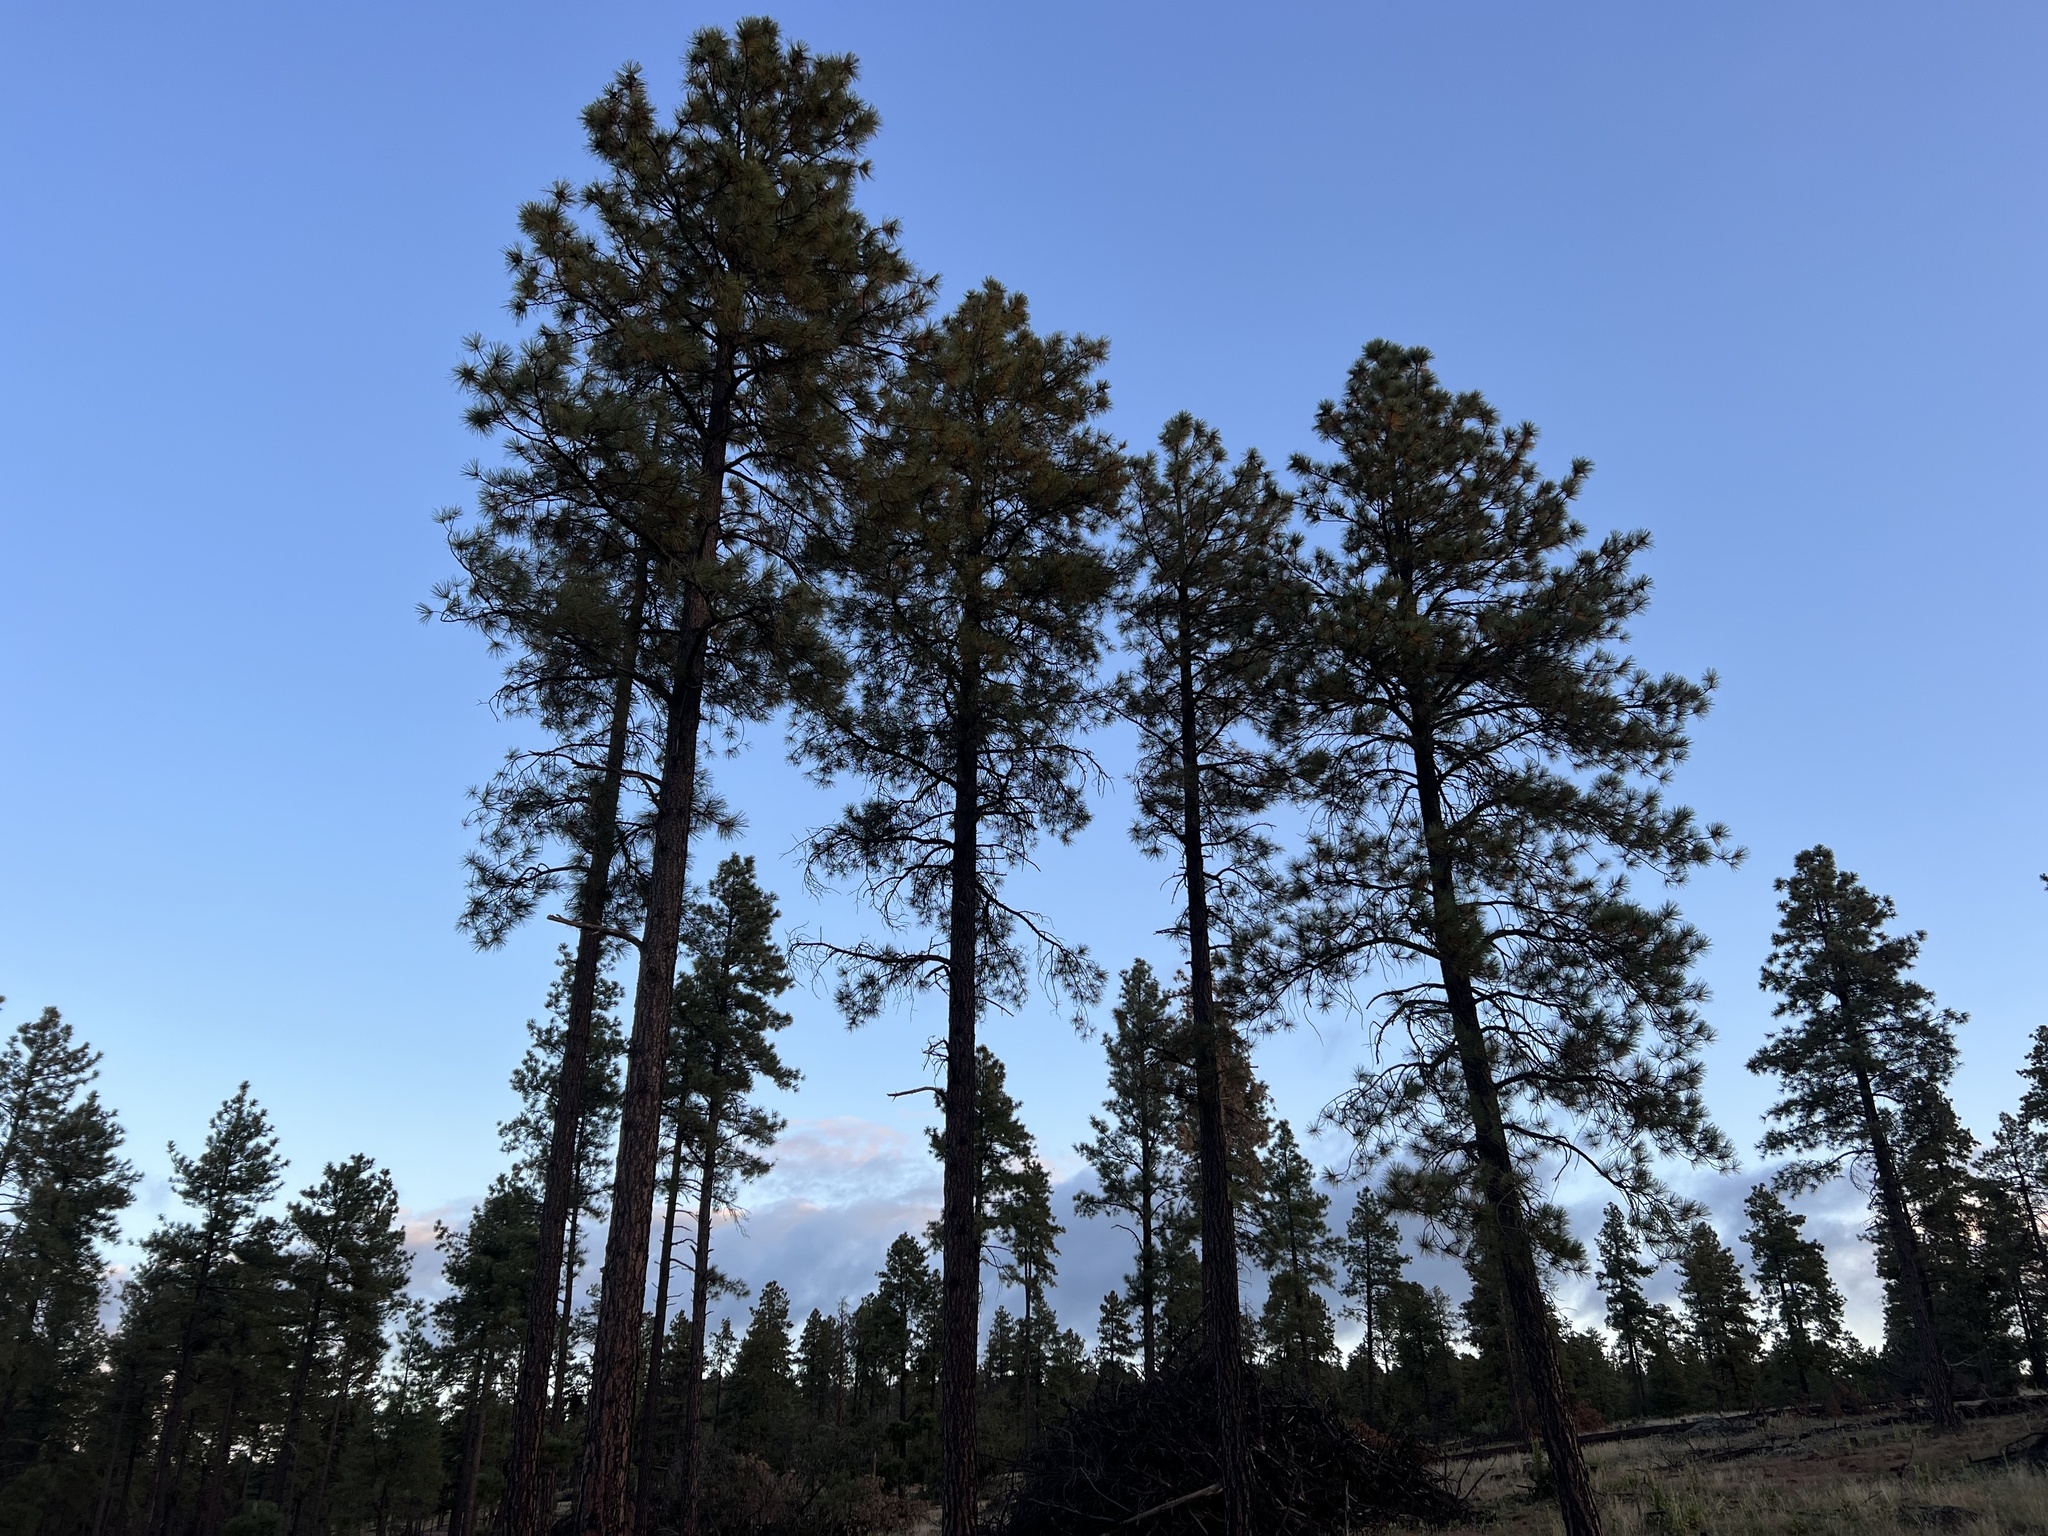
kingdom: Plantae
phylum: Tracheophyta
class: Pinopsida
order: Pinales
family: Pinaceae
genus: Pinus
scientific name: Pinus ponderosa
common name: Western yellow-pine
